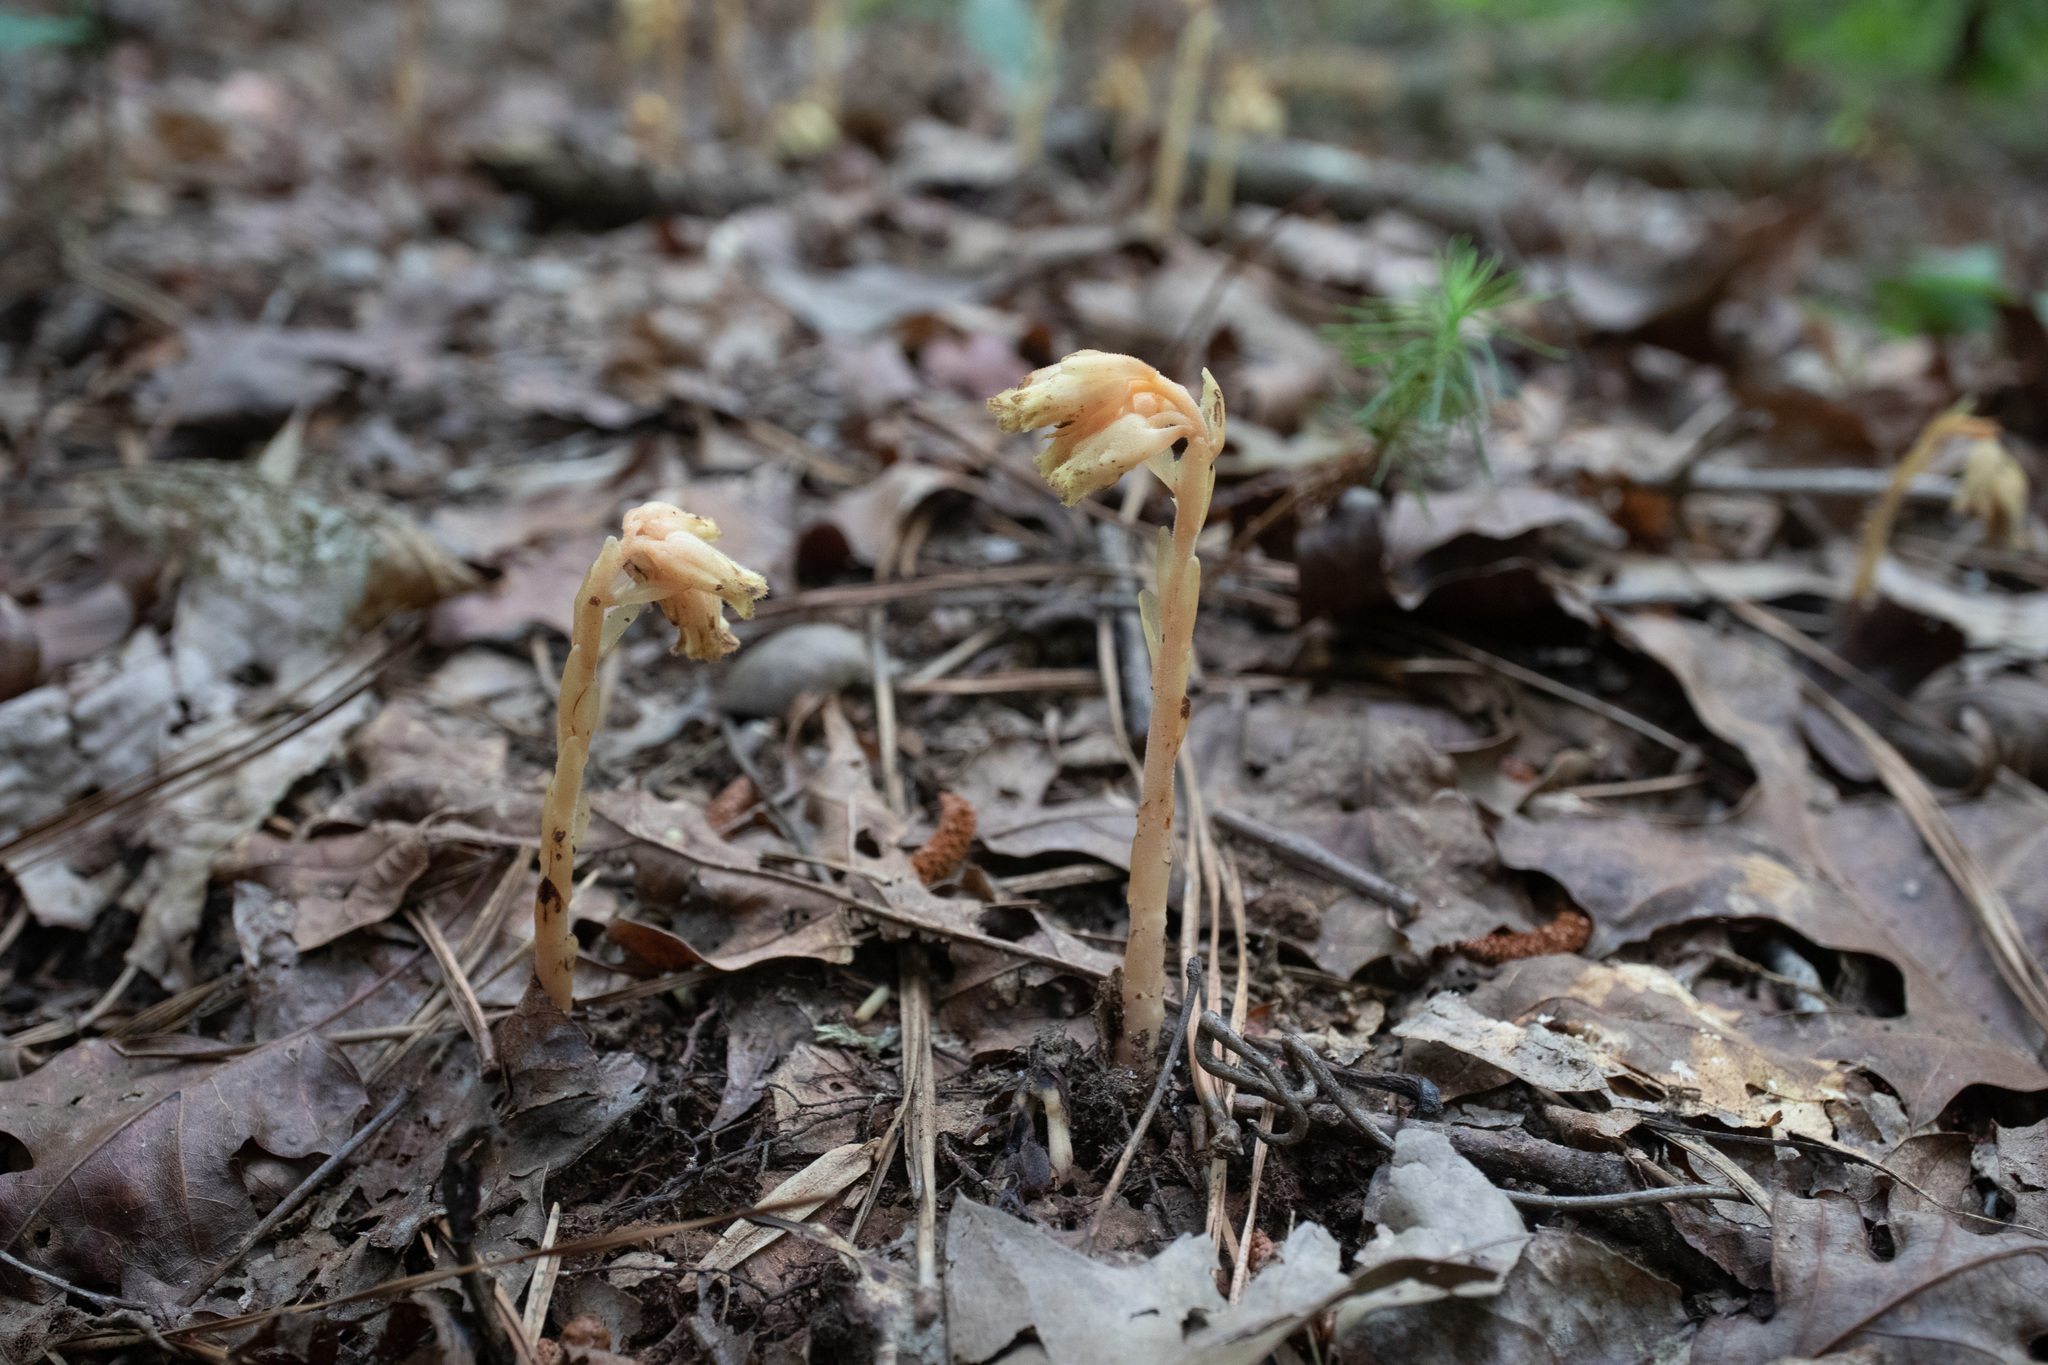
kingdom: Plantae
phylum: Tracheophyta
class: Magnoliopsida
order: Ericales
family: Ericaceae
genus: Hypopitys
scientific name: Hypopitys monotropa
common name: Yellow bird's-nest
